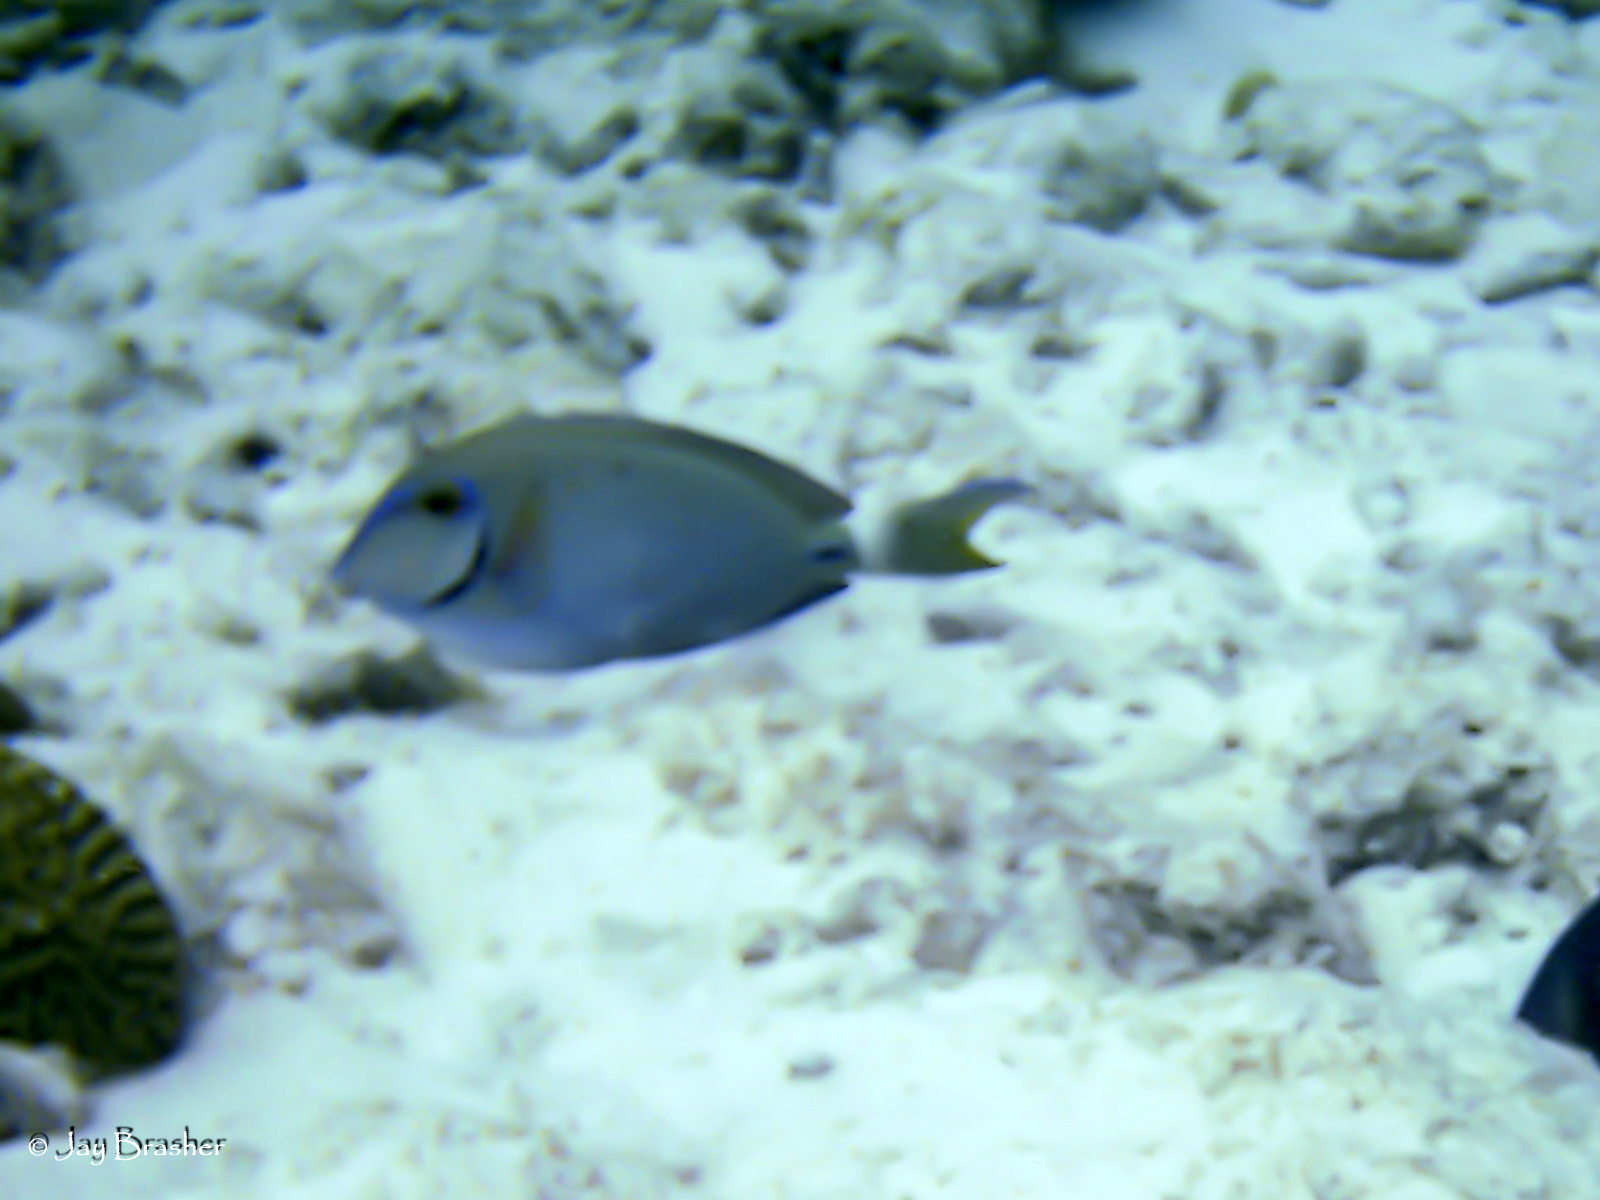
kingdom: Animalia
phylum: Chordata
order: Perciformes
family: Acanthuridae
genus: Acanthurus
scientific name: Acanthurus bahianus
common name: Ocean surgeon
